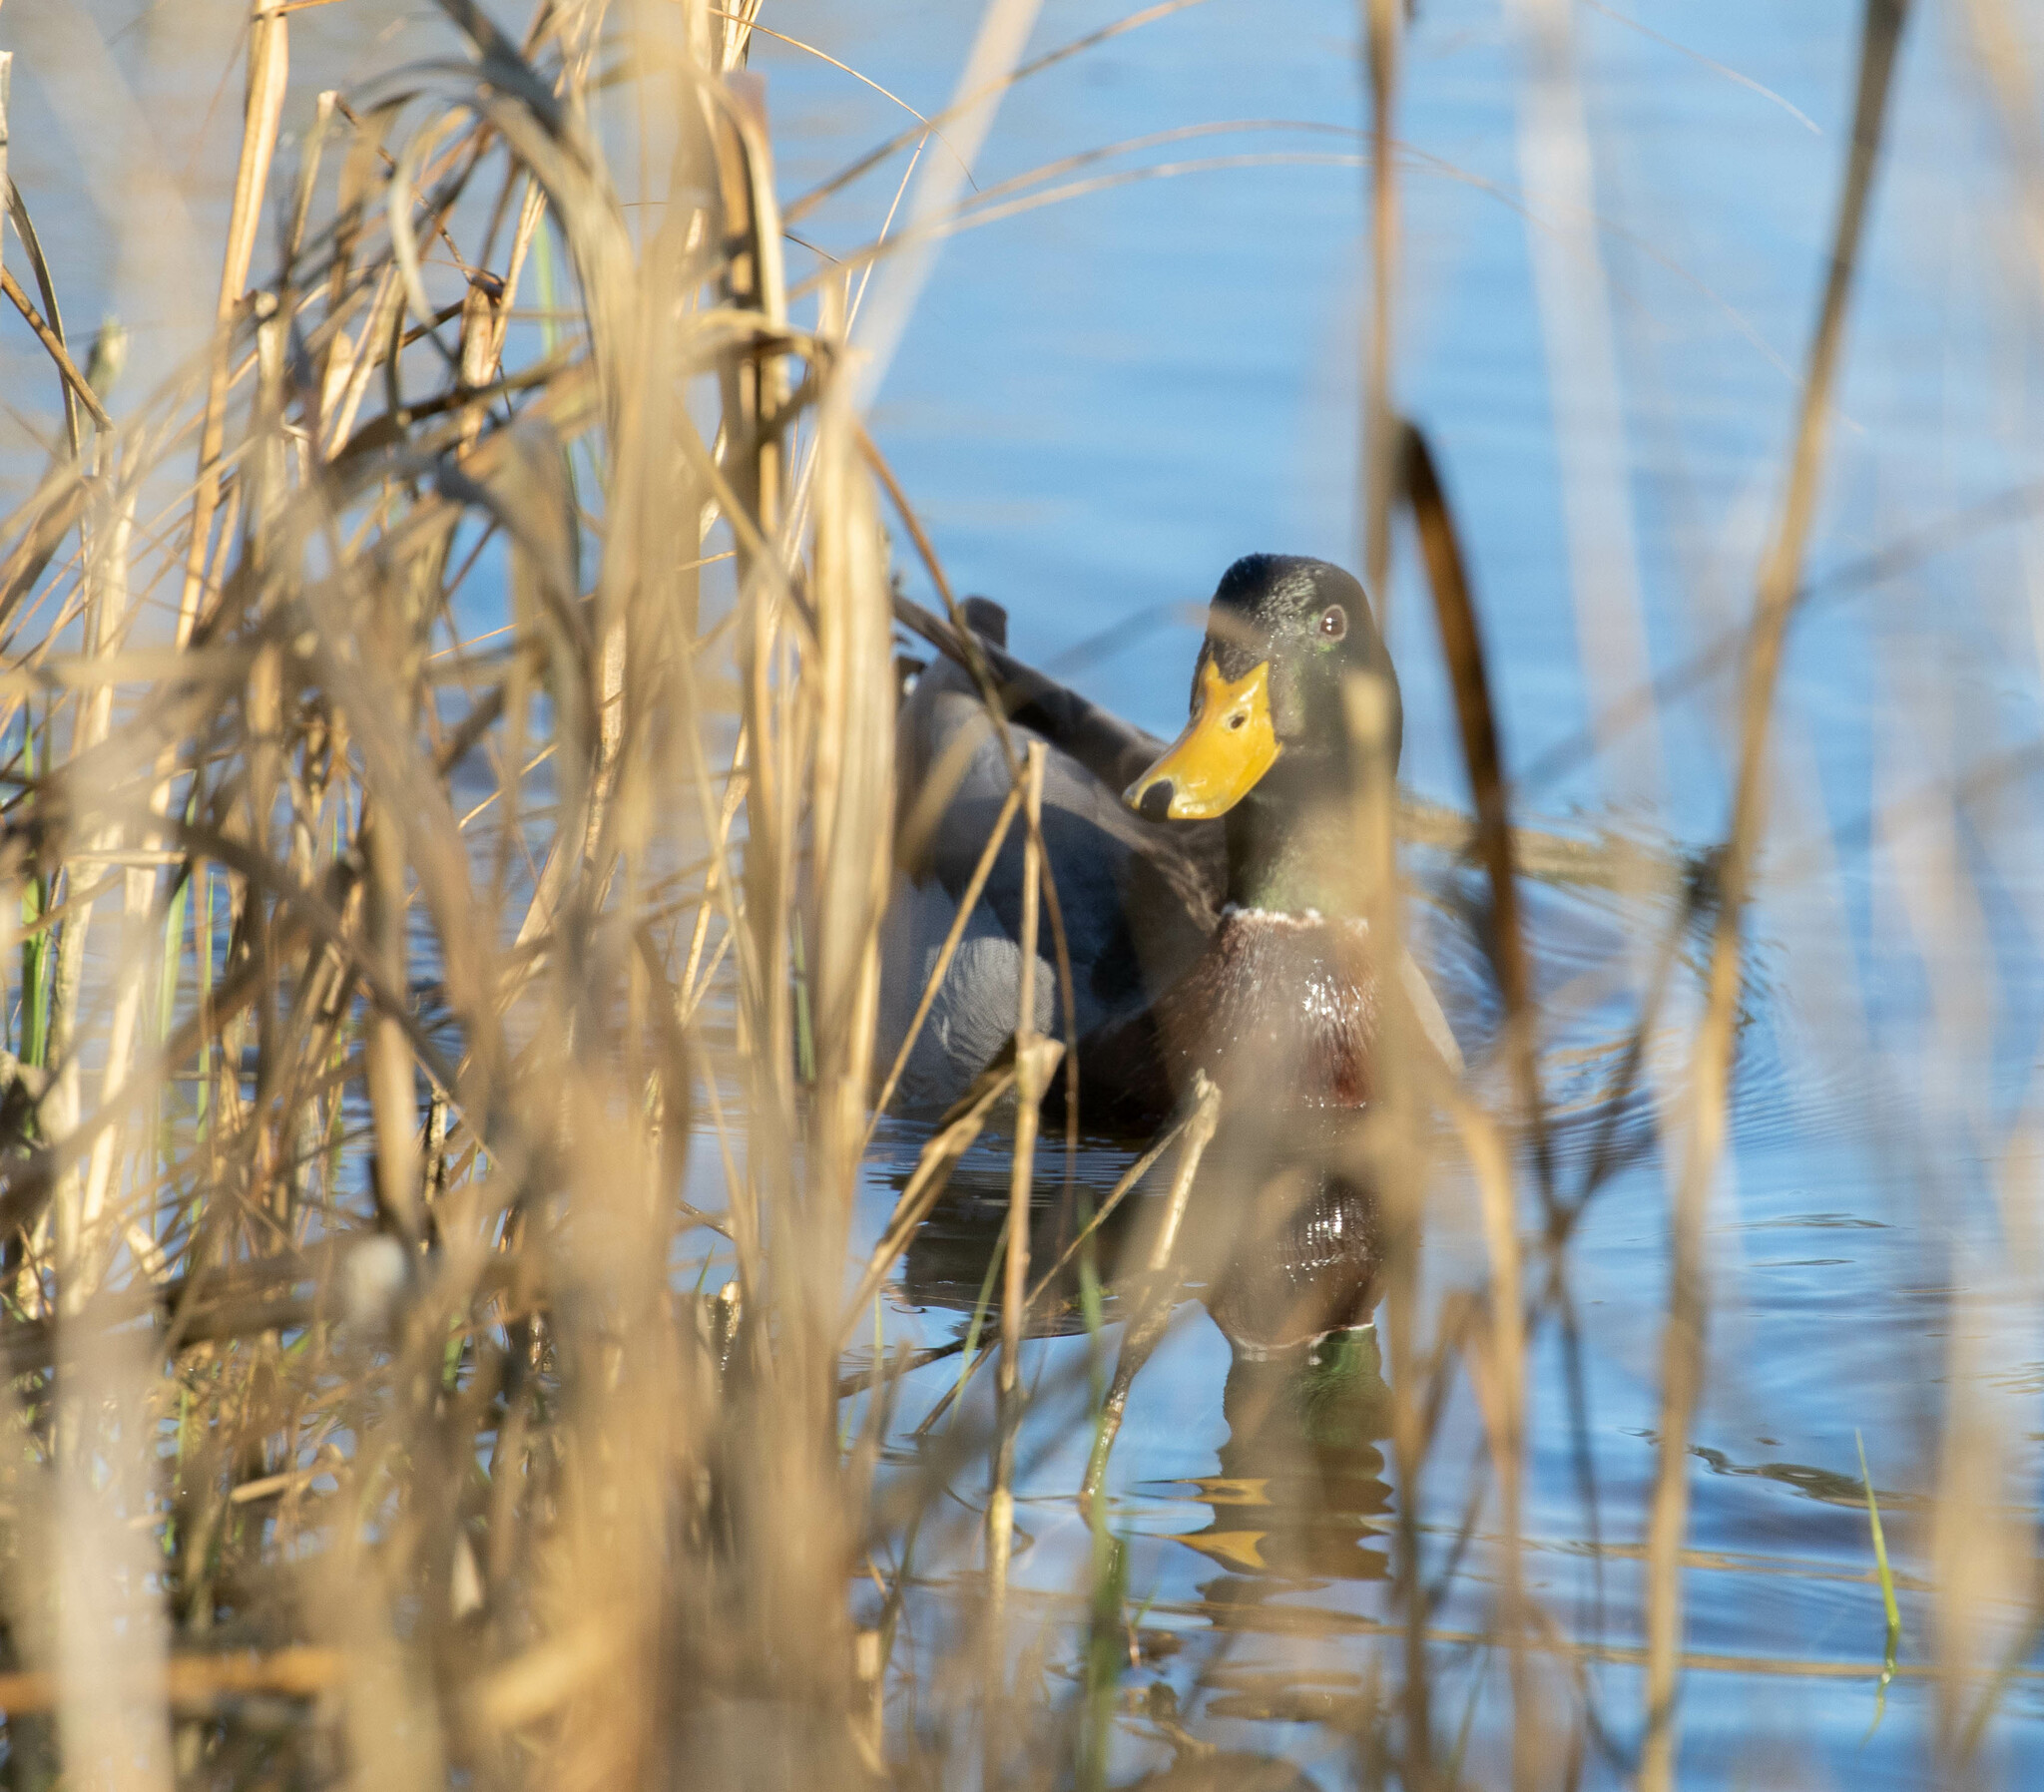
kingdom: Animalia
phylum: Chordata
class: Aves
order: Anseriformes
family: Anatidae
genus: Anas
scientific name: Anas platyrhynchos
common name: Mallard
